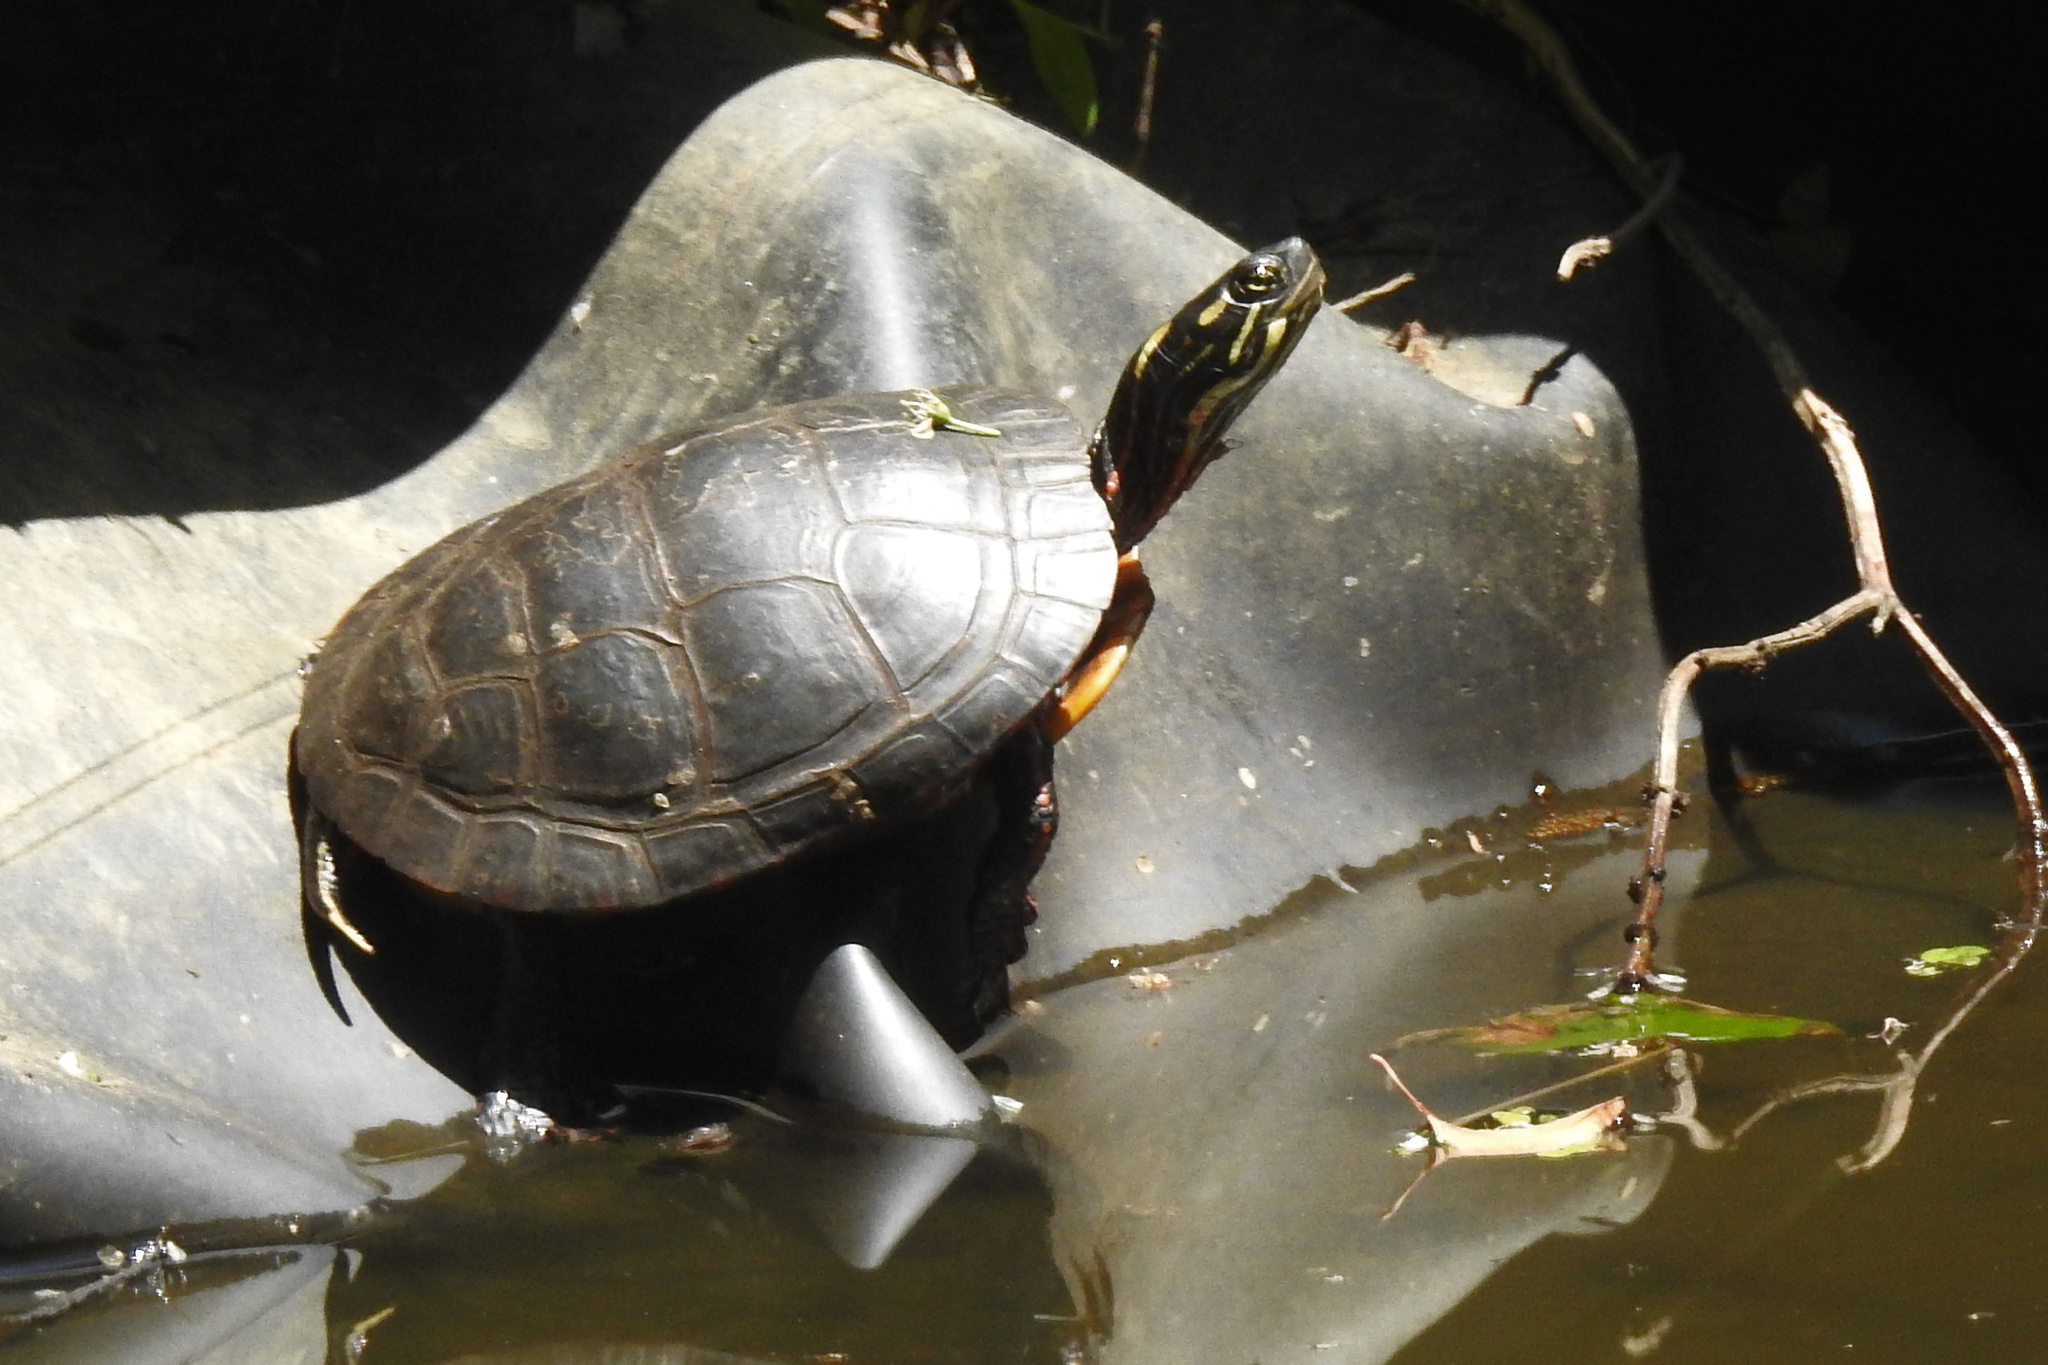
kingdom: Animalia
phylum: Chordata
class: Testudines
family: Emydidae
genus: Chrysemys
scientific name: Chrysemys picta
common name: Painted turtle
